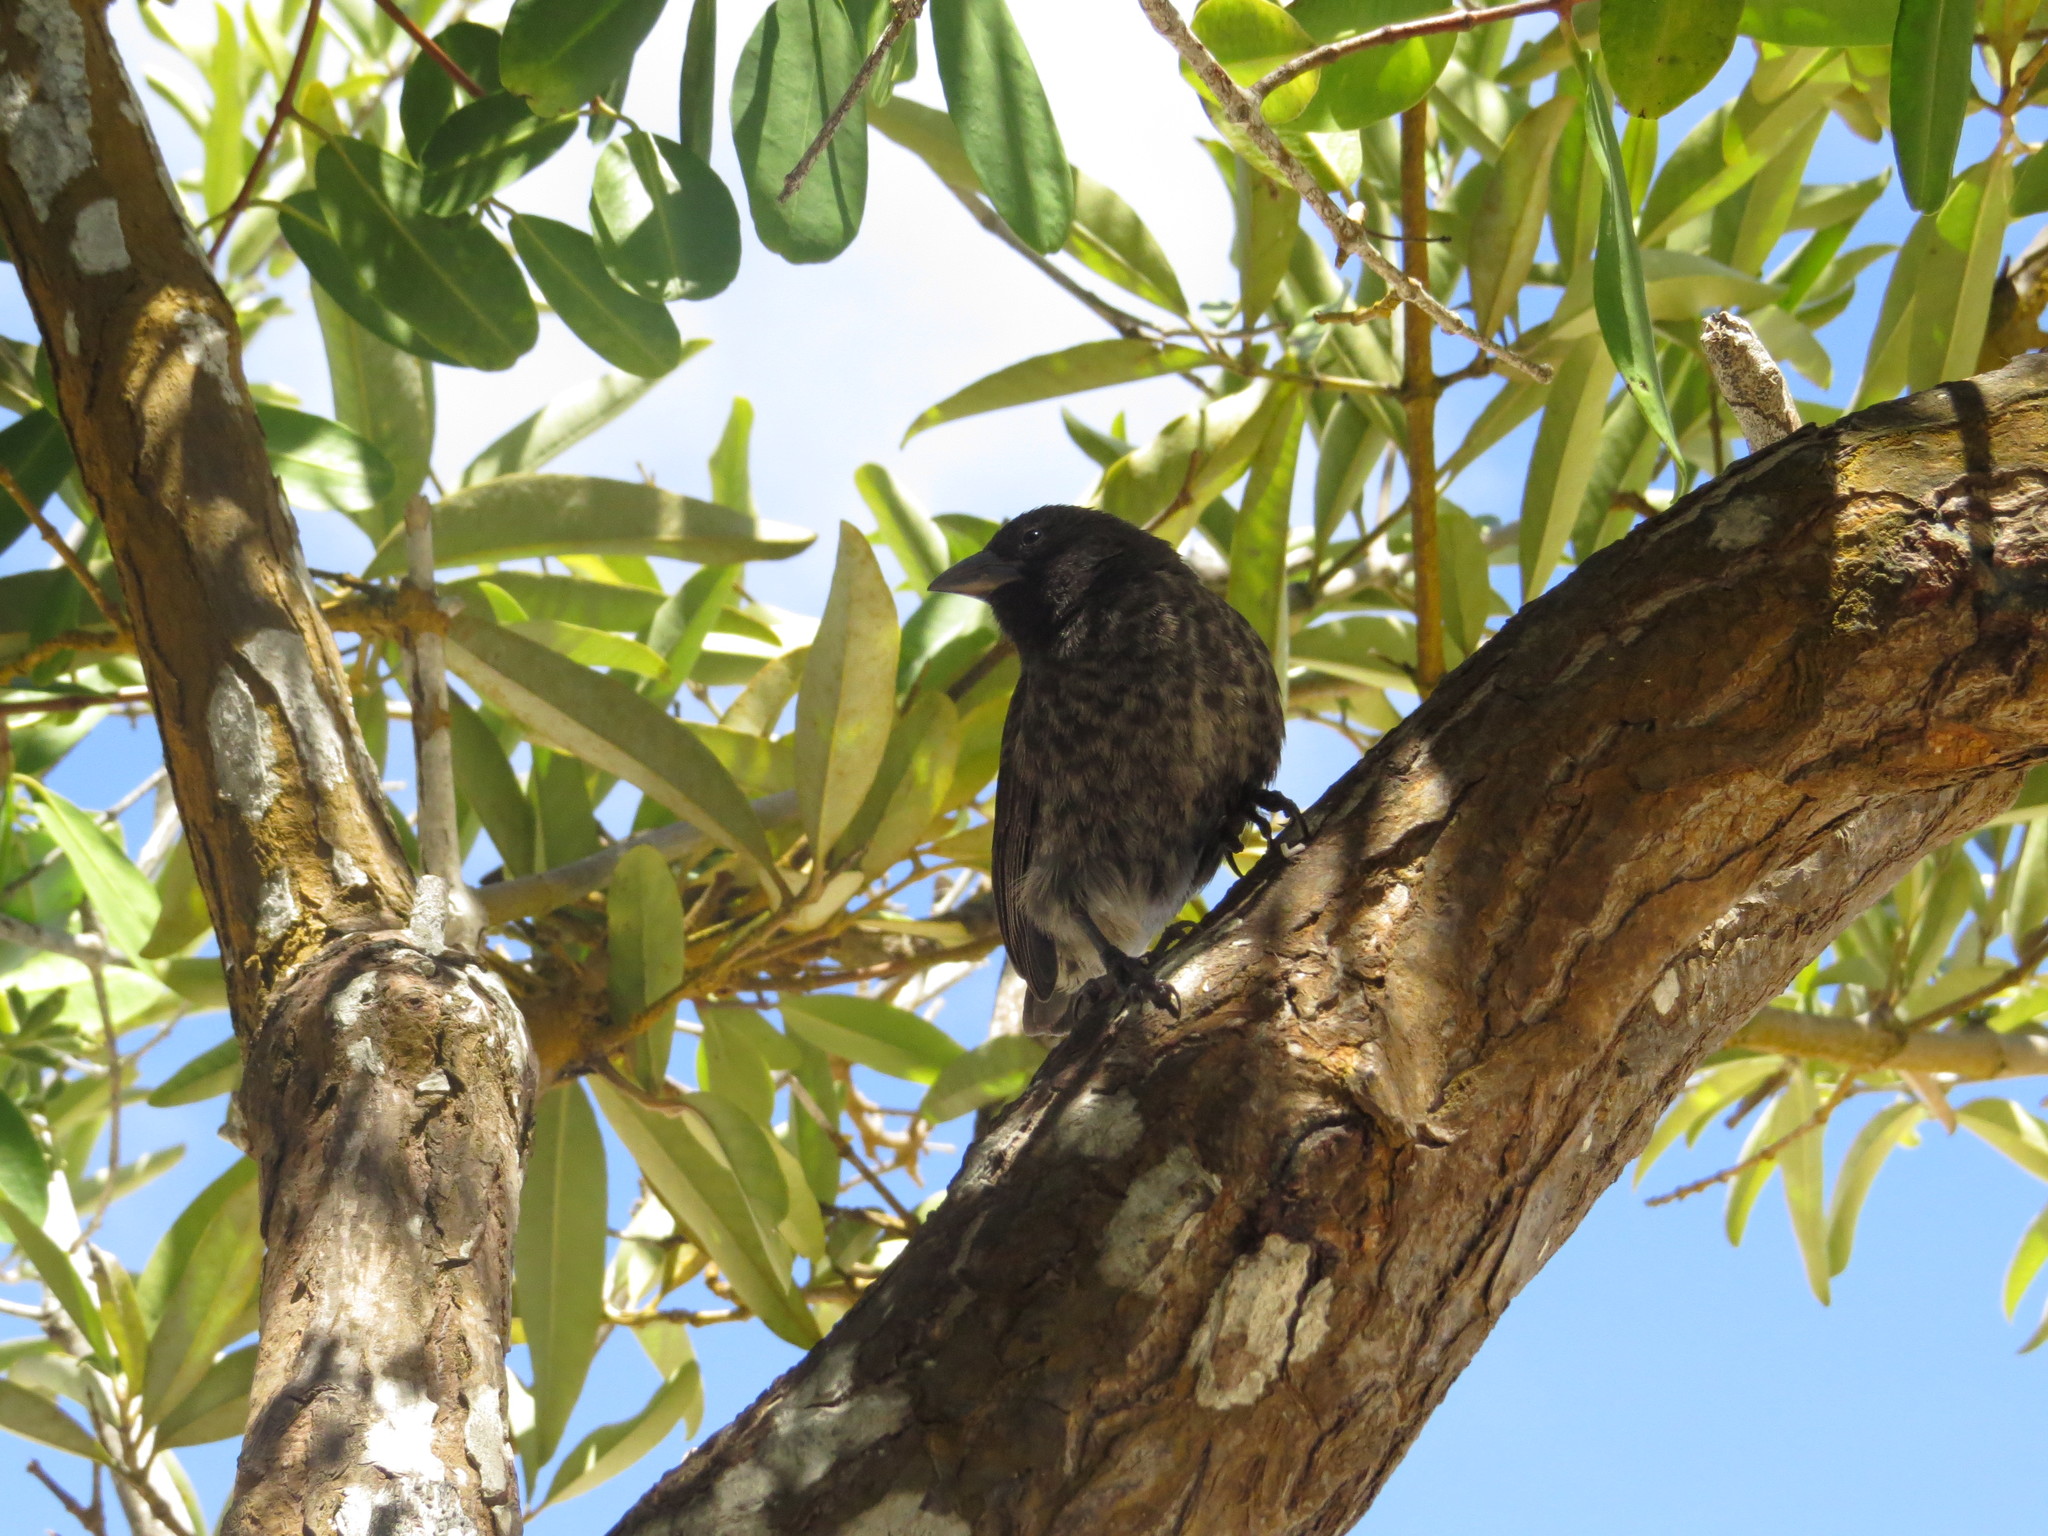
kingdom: Animalia
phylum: Chordata
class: Aves
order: Passeriformes
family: Thraupidae
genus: Geospiza
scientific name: Geospiza fuliginosa
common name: Small ground finch
